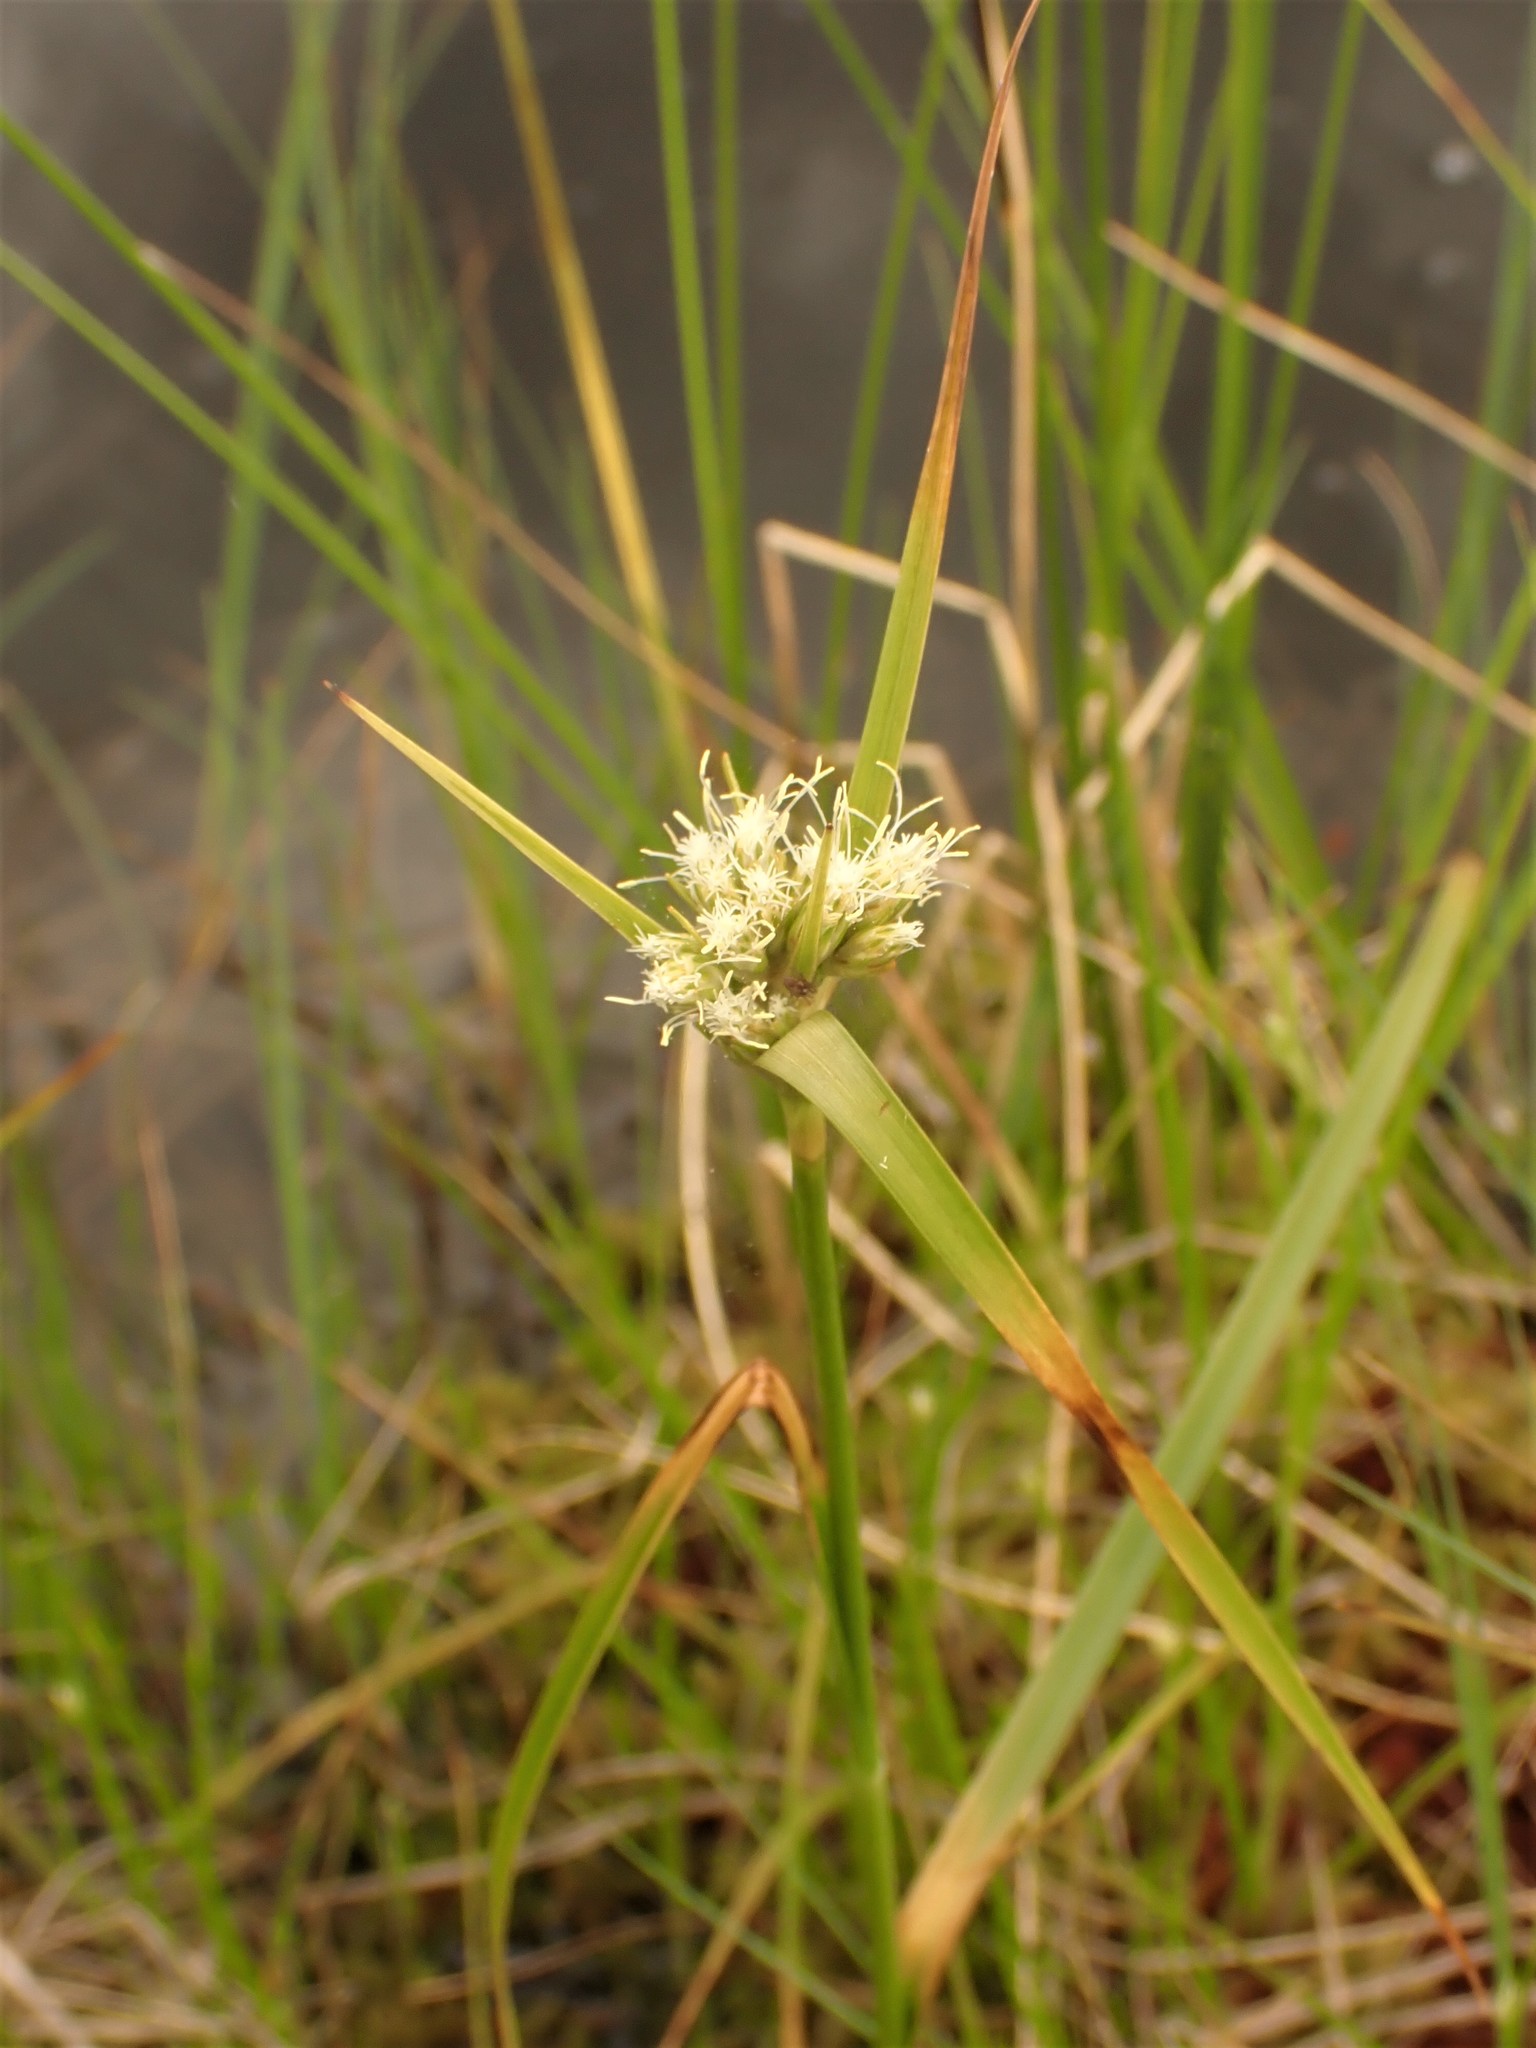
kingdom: Plantae
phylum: Tracheophyta
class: Liliopsida
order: Poales
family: Cyperaceae
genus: Eriophorum
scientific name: Eriophorum virginicum
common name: Tawny cottongrass
